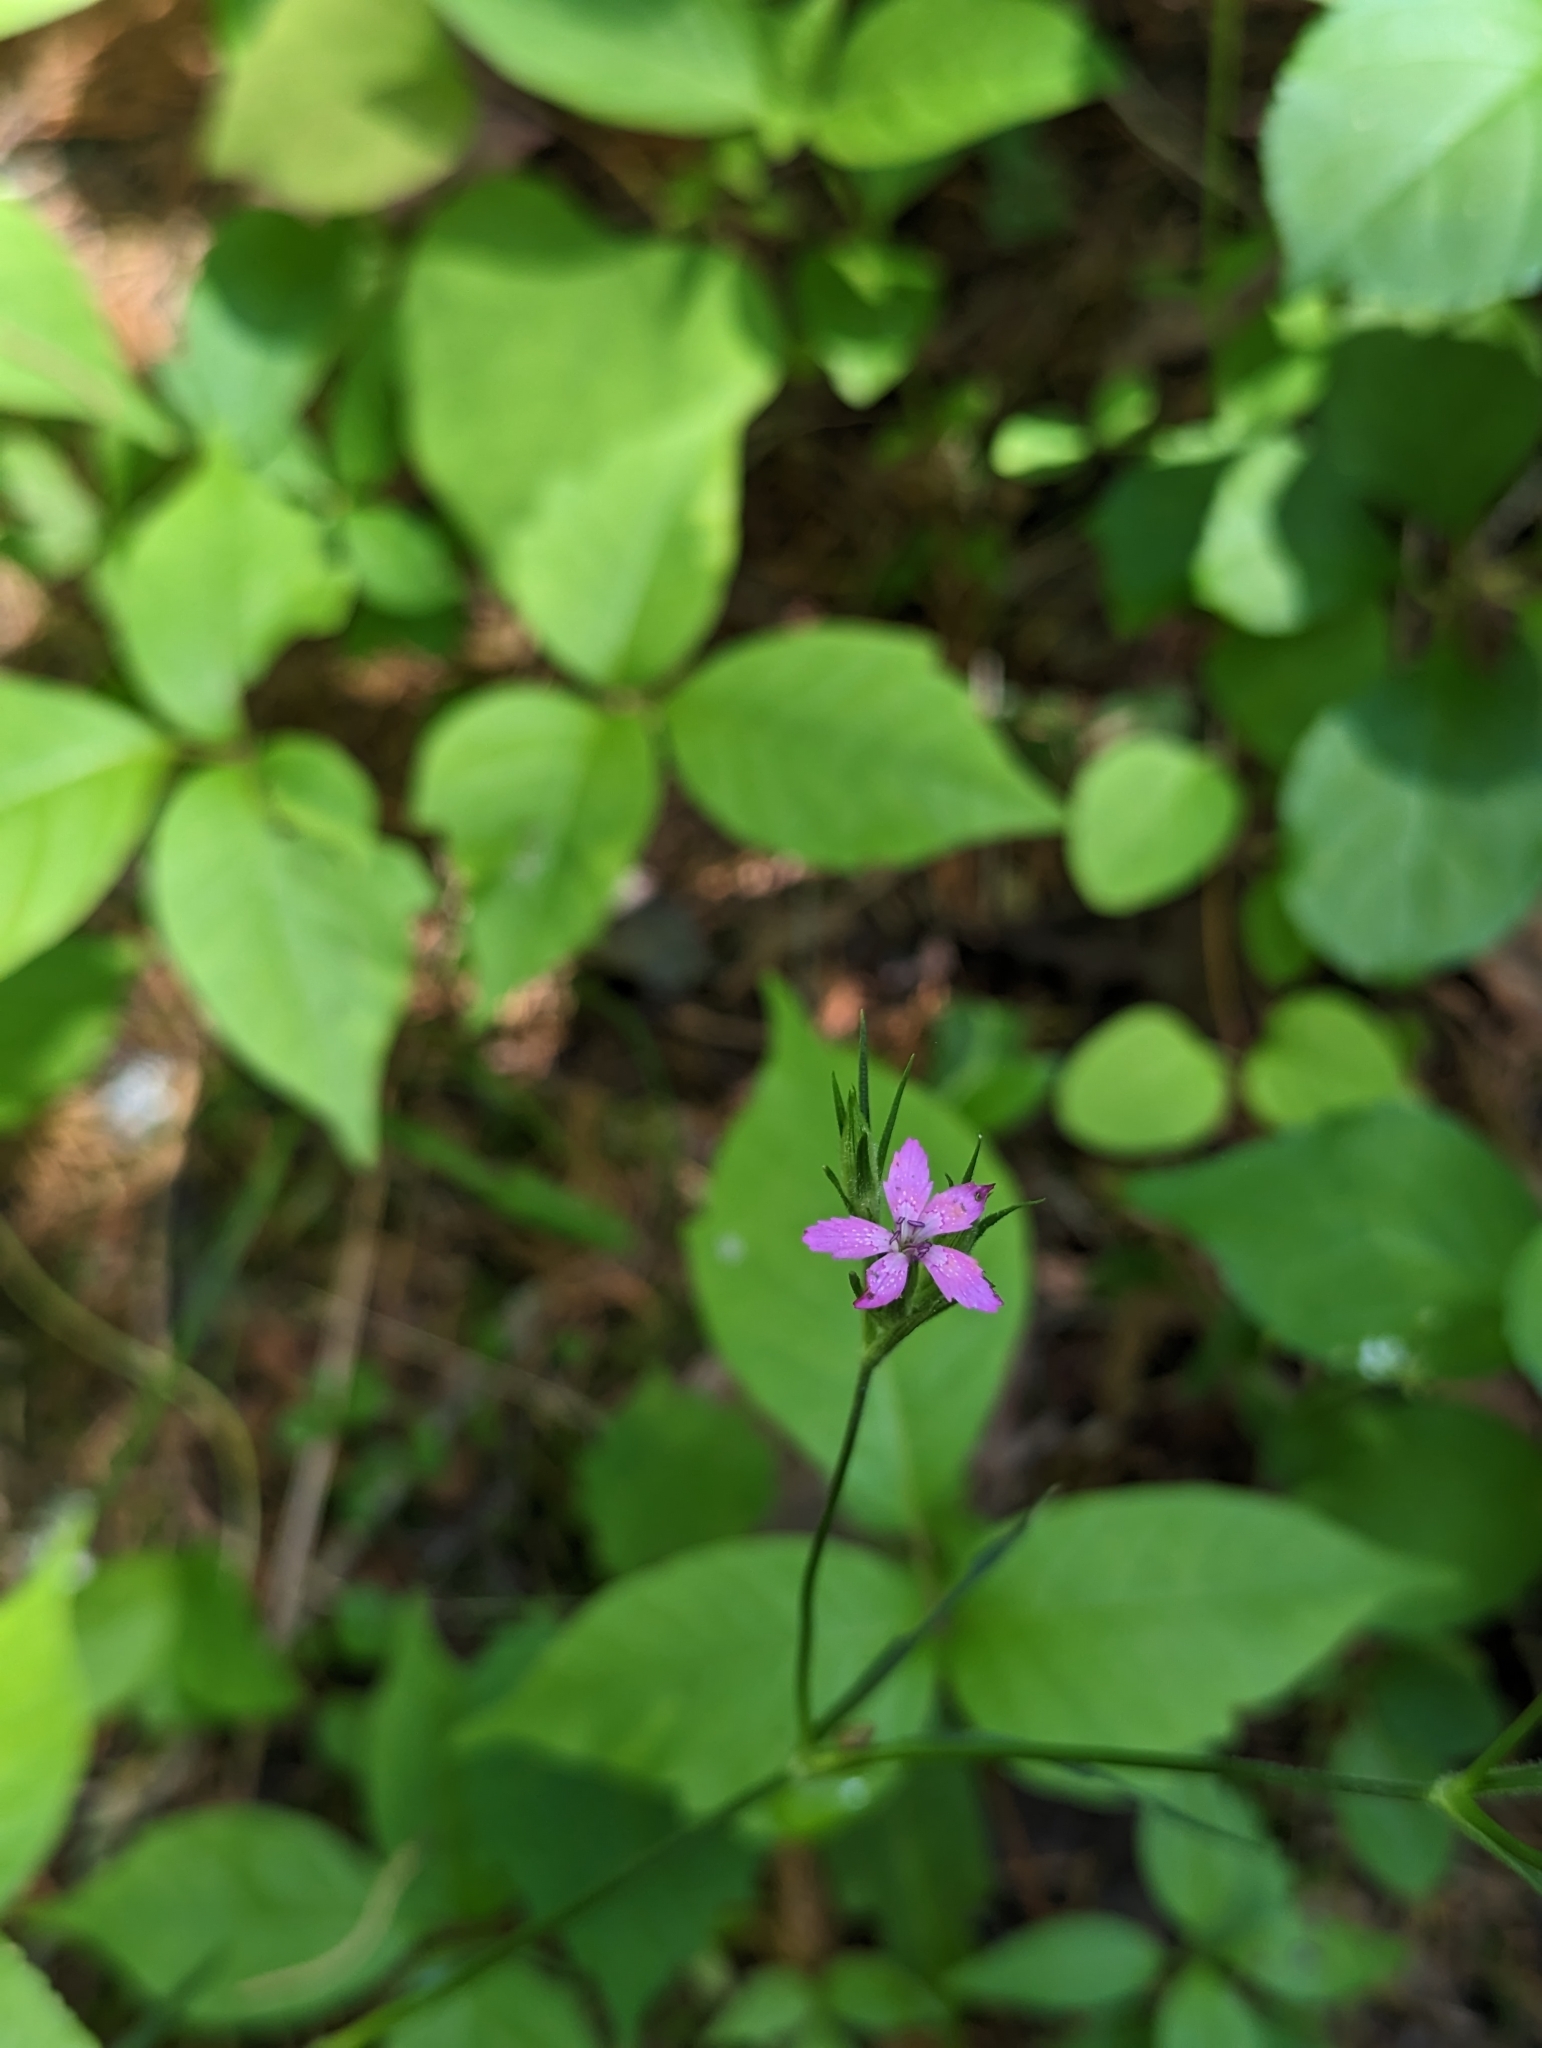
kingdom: Plantae
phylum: Tracheophyta
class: Magnoliopsida
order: Caryophyllales
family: Caryophyllaceae
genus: Dianthus
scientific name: Dianthus armeria
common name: Deptford pink
